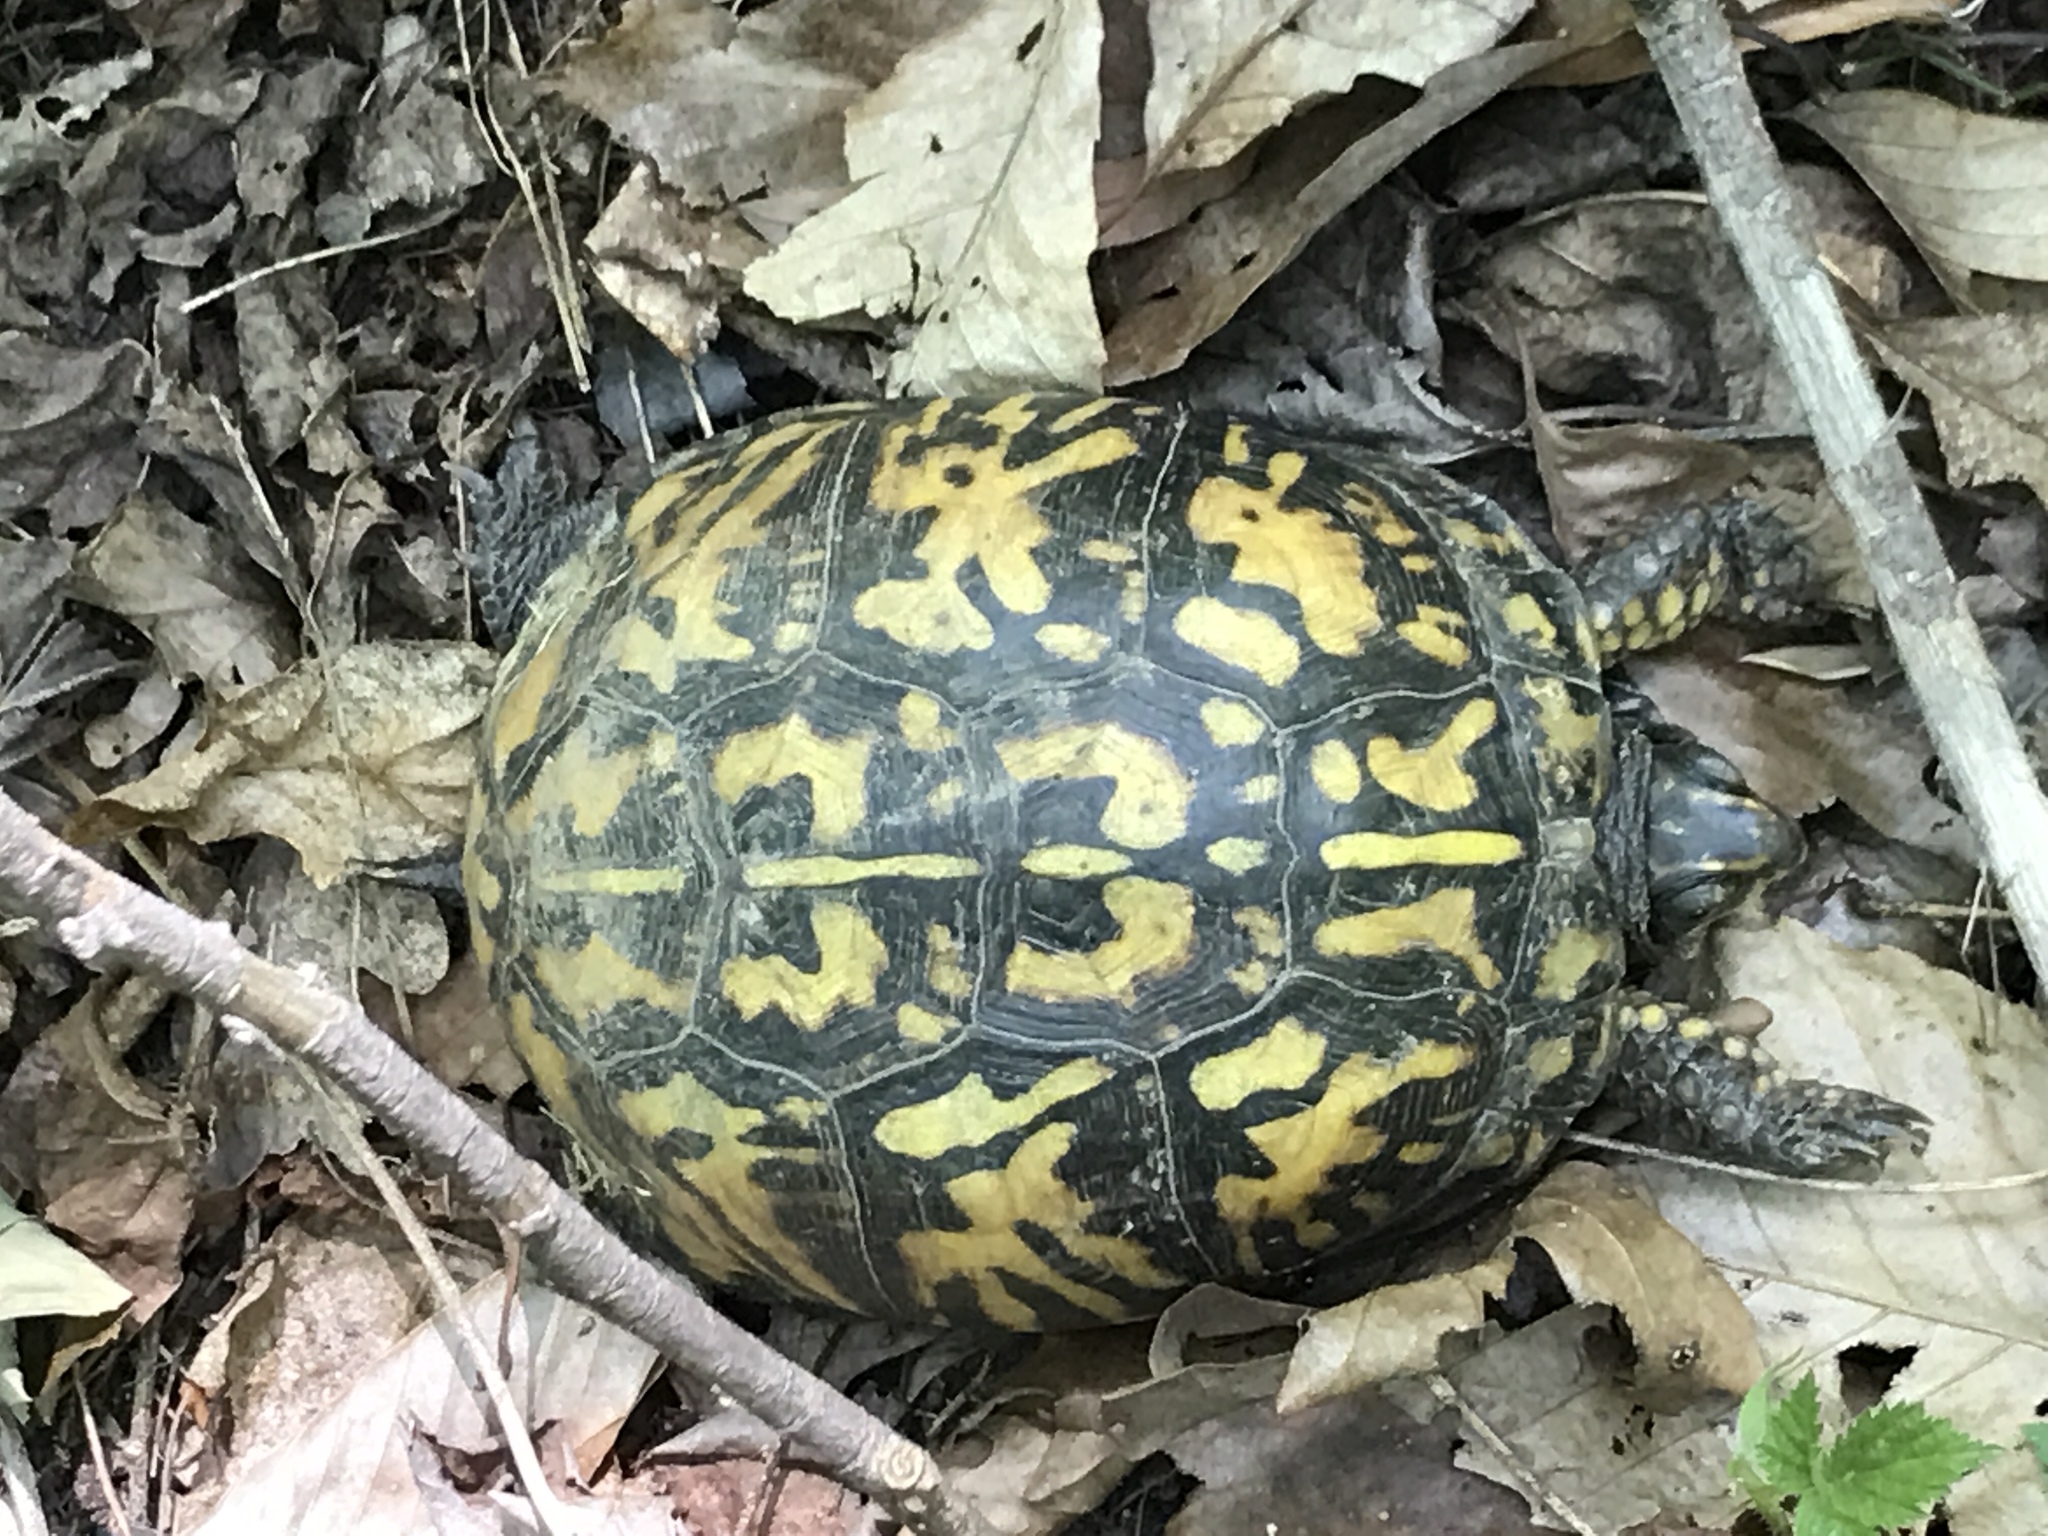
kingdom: Animalia
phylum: Chordata
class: Testudines
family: Emydidae
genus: Terrapene
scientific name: Terrapene carolina
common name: Common box turtle
